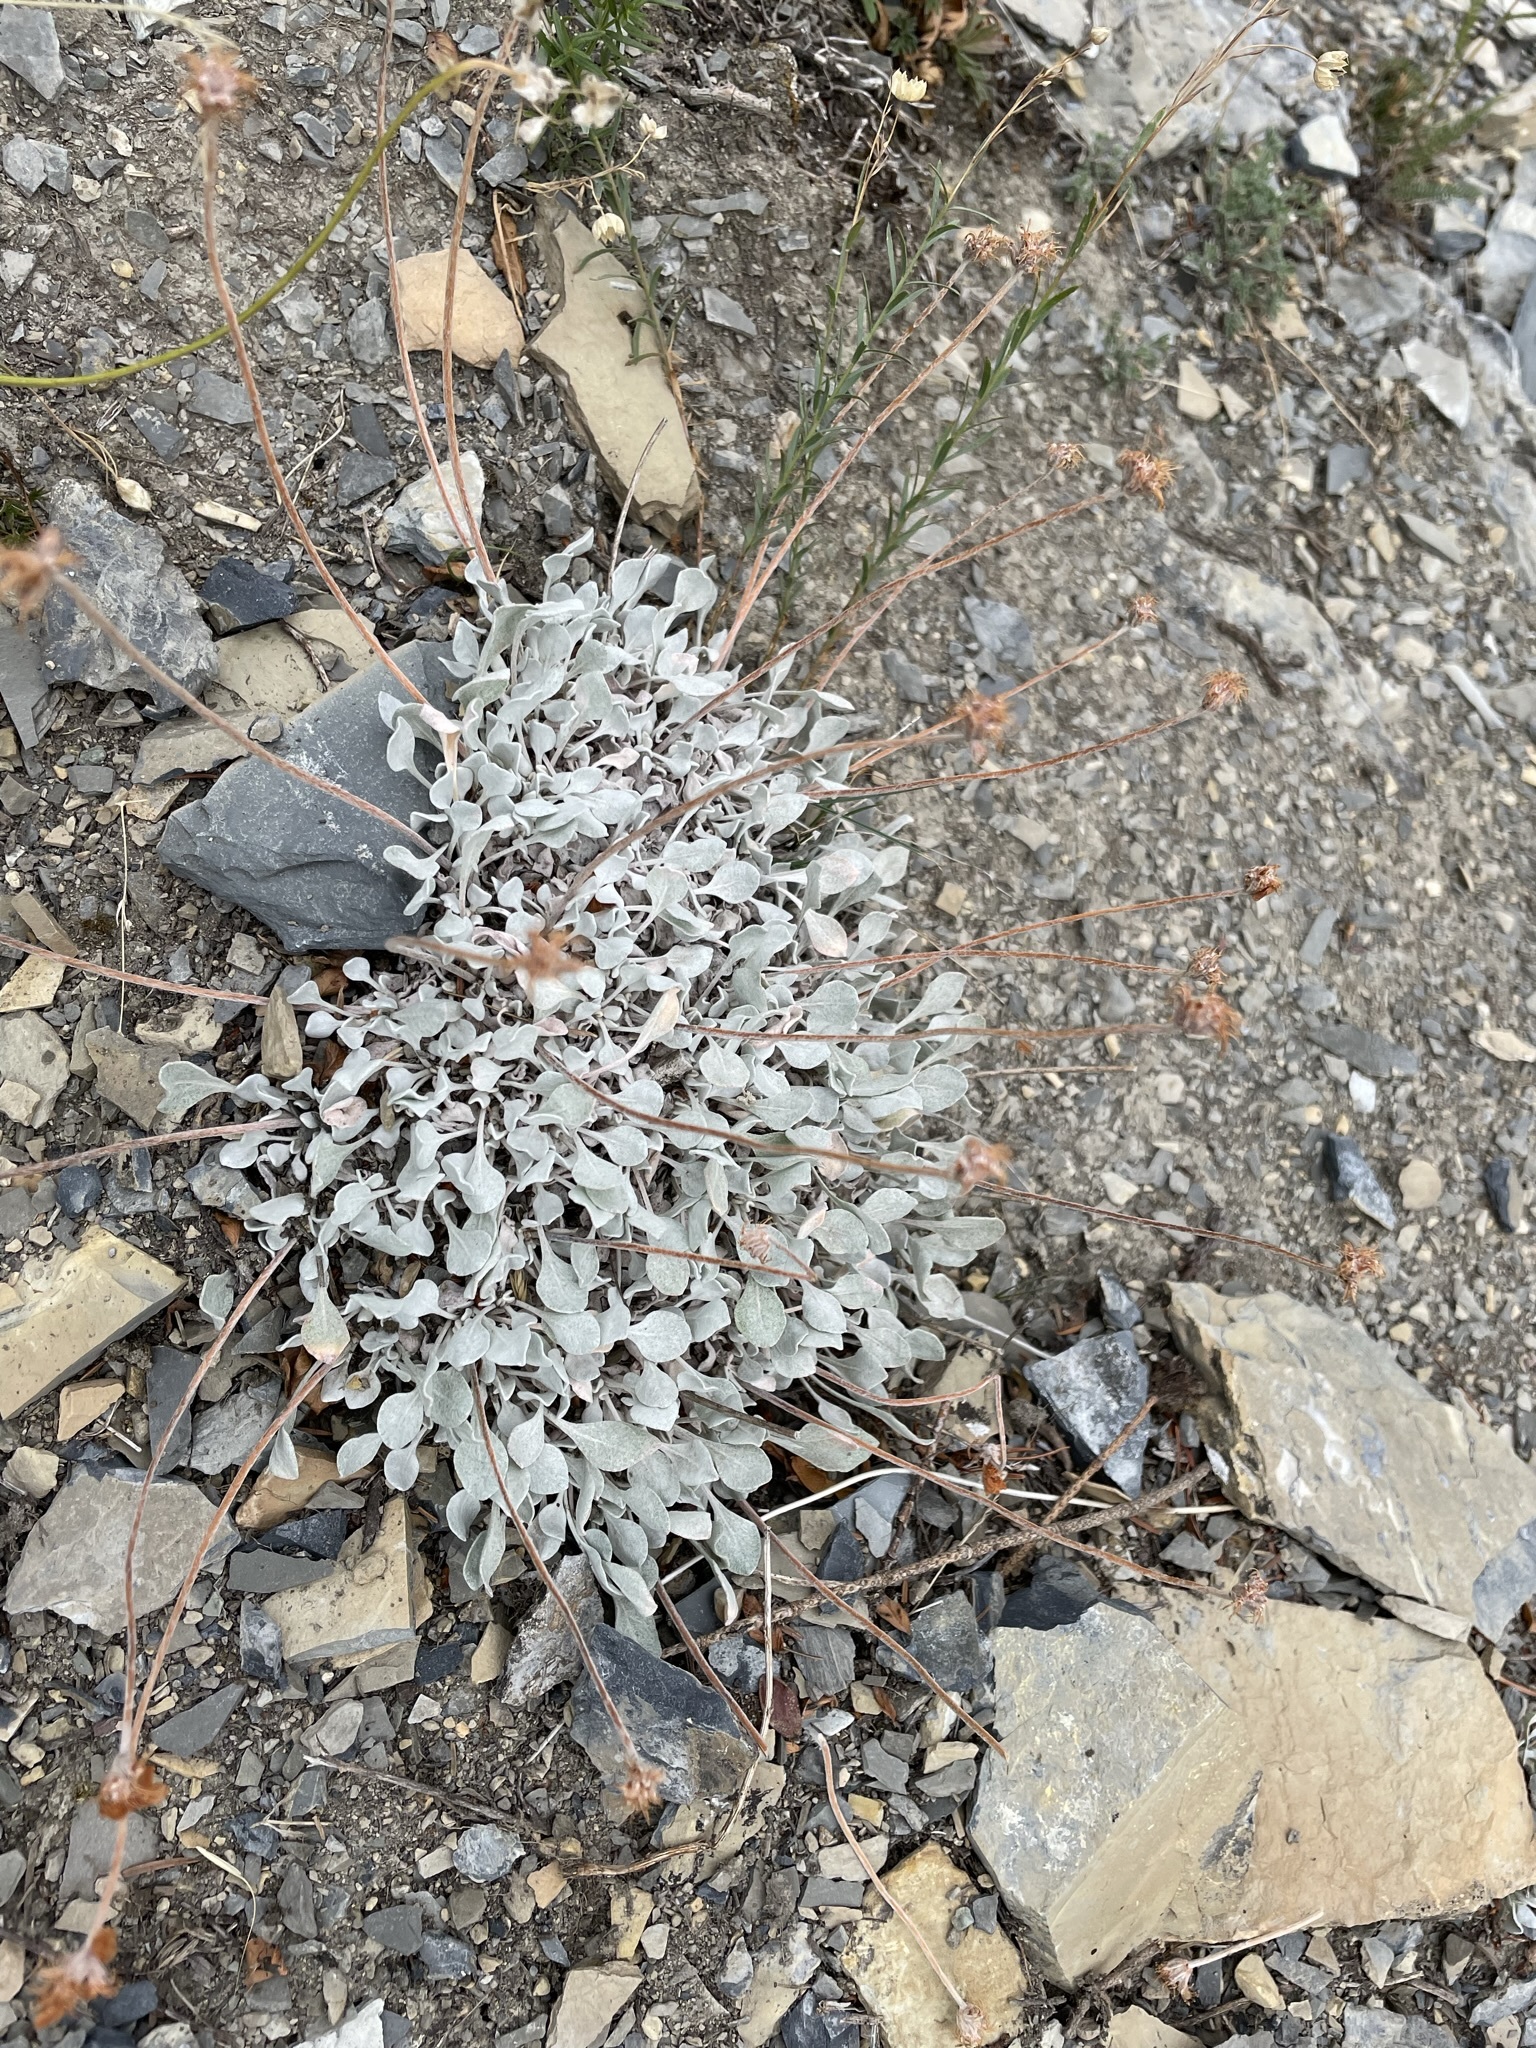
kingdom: Plantae
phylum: Tracheophyta
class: Magnoliopsida
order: Caryophyllales
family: Polygonaceae
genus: Eriogonum
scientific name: Eriogonum ovalifolium
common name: Cushion buckwheat
